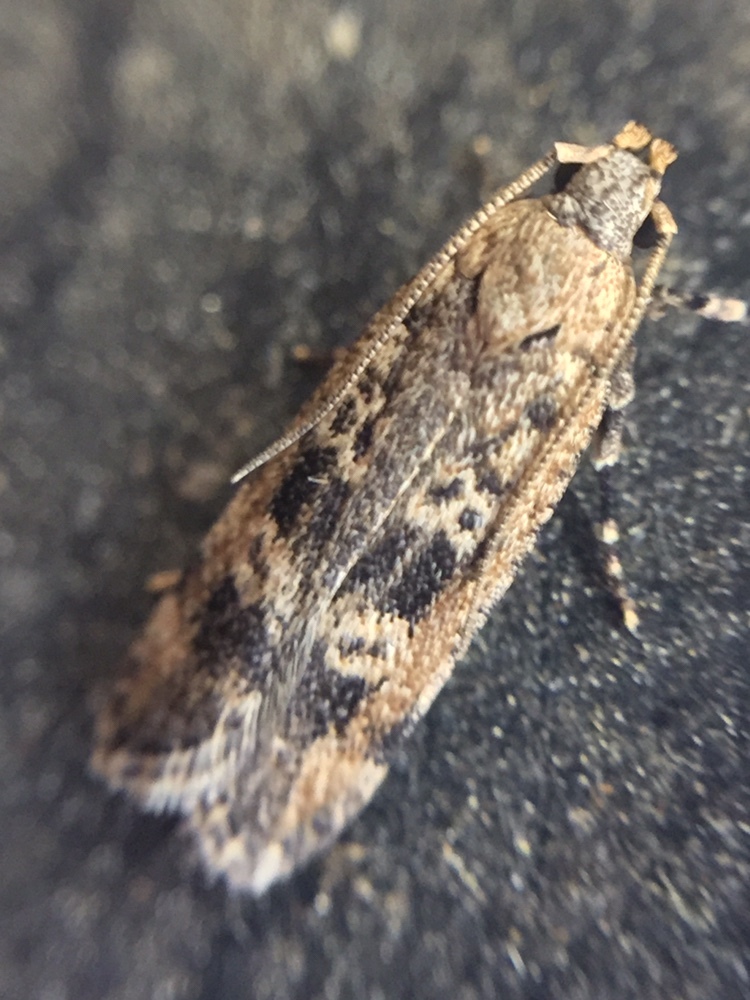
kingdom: Animalia
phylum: Arthropoda
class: Insecta
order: Lepidoptera
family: Gelechiidae
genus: Anisoplaca
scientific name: Anisoplaca cosmia
